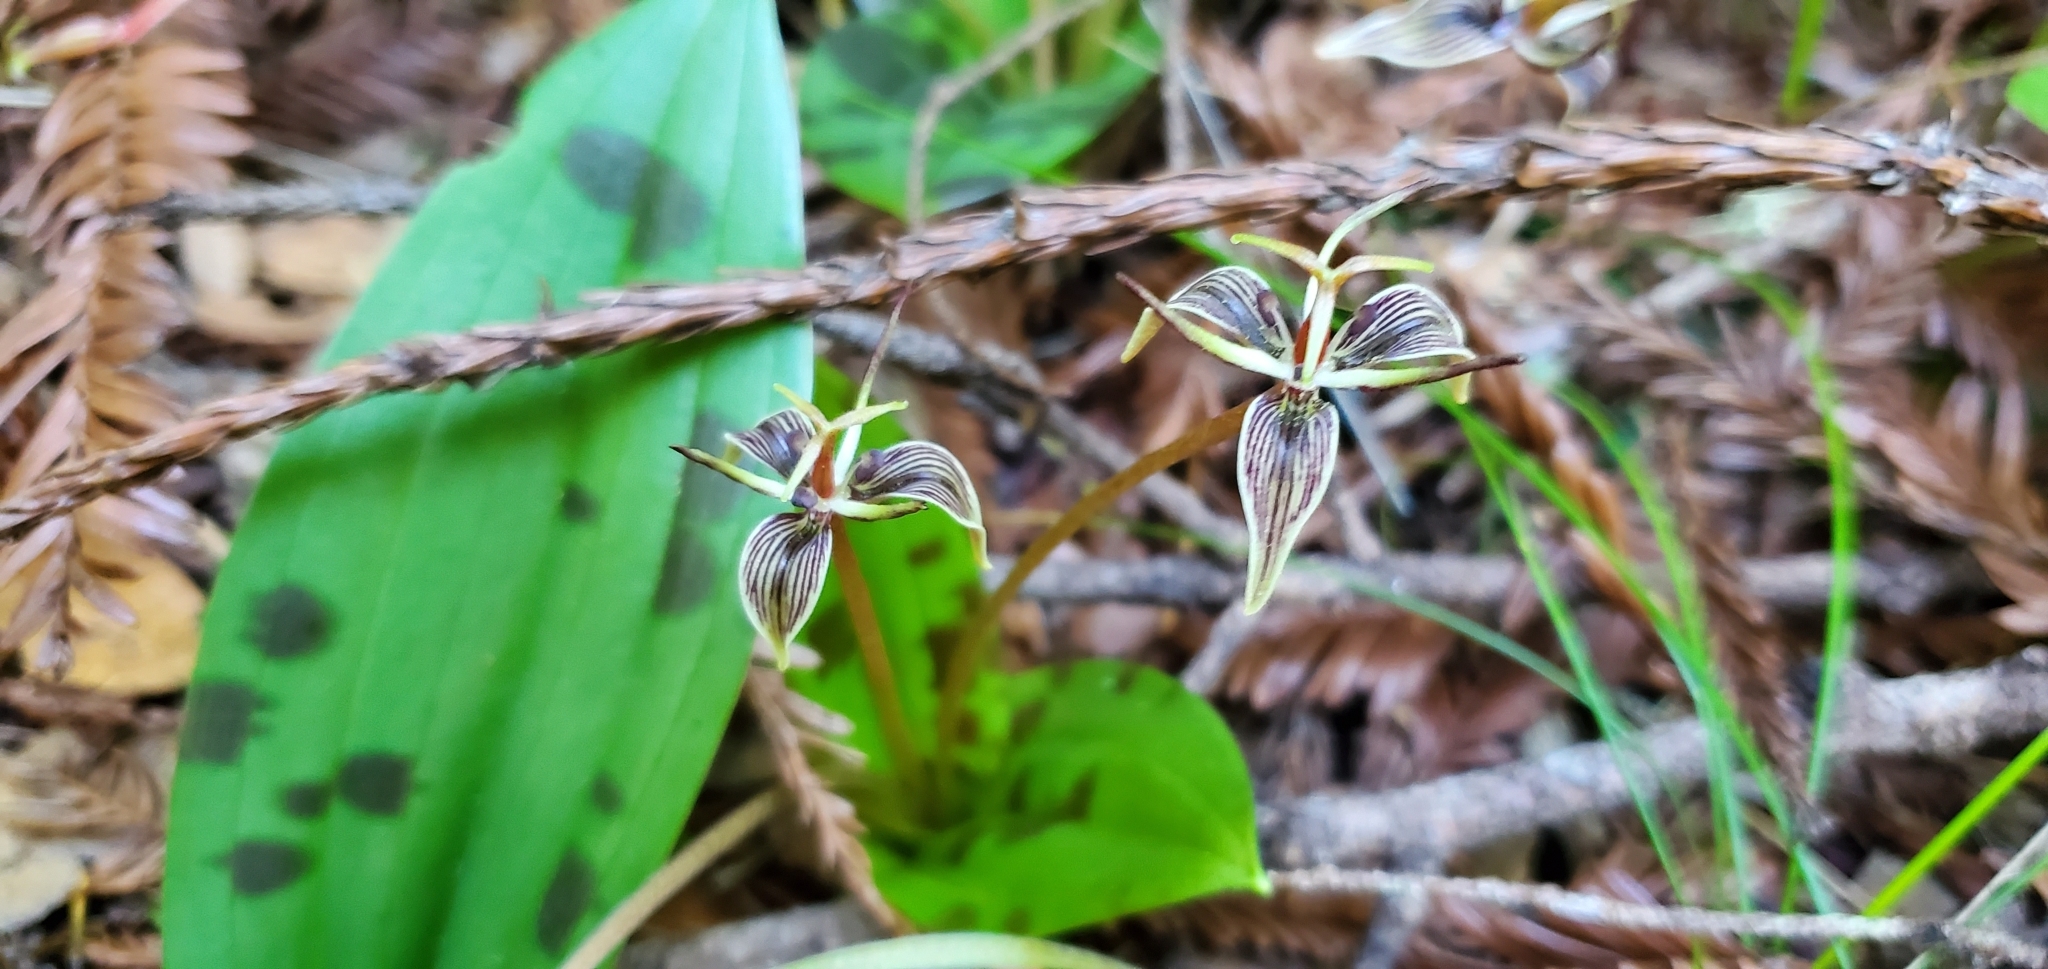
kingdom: Plantae
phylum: Tracheophyta
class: Liliopsida
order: Liliales
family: Liliaceae
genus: Scoliopus
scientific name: Scoliopus bigelovii
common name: Foetid adder's-tongue
